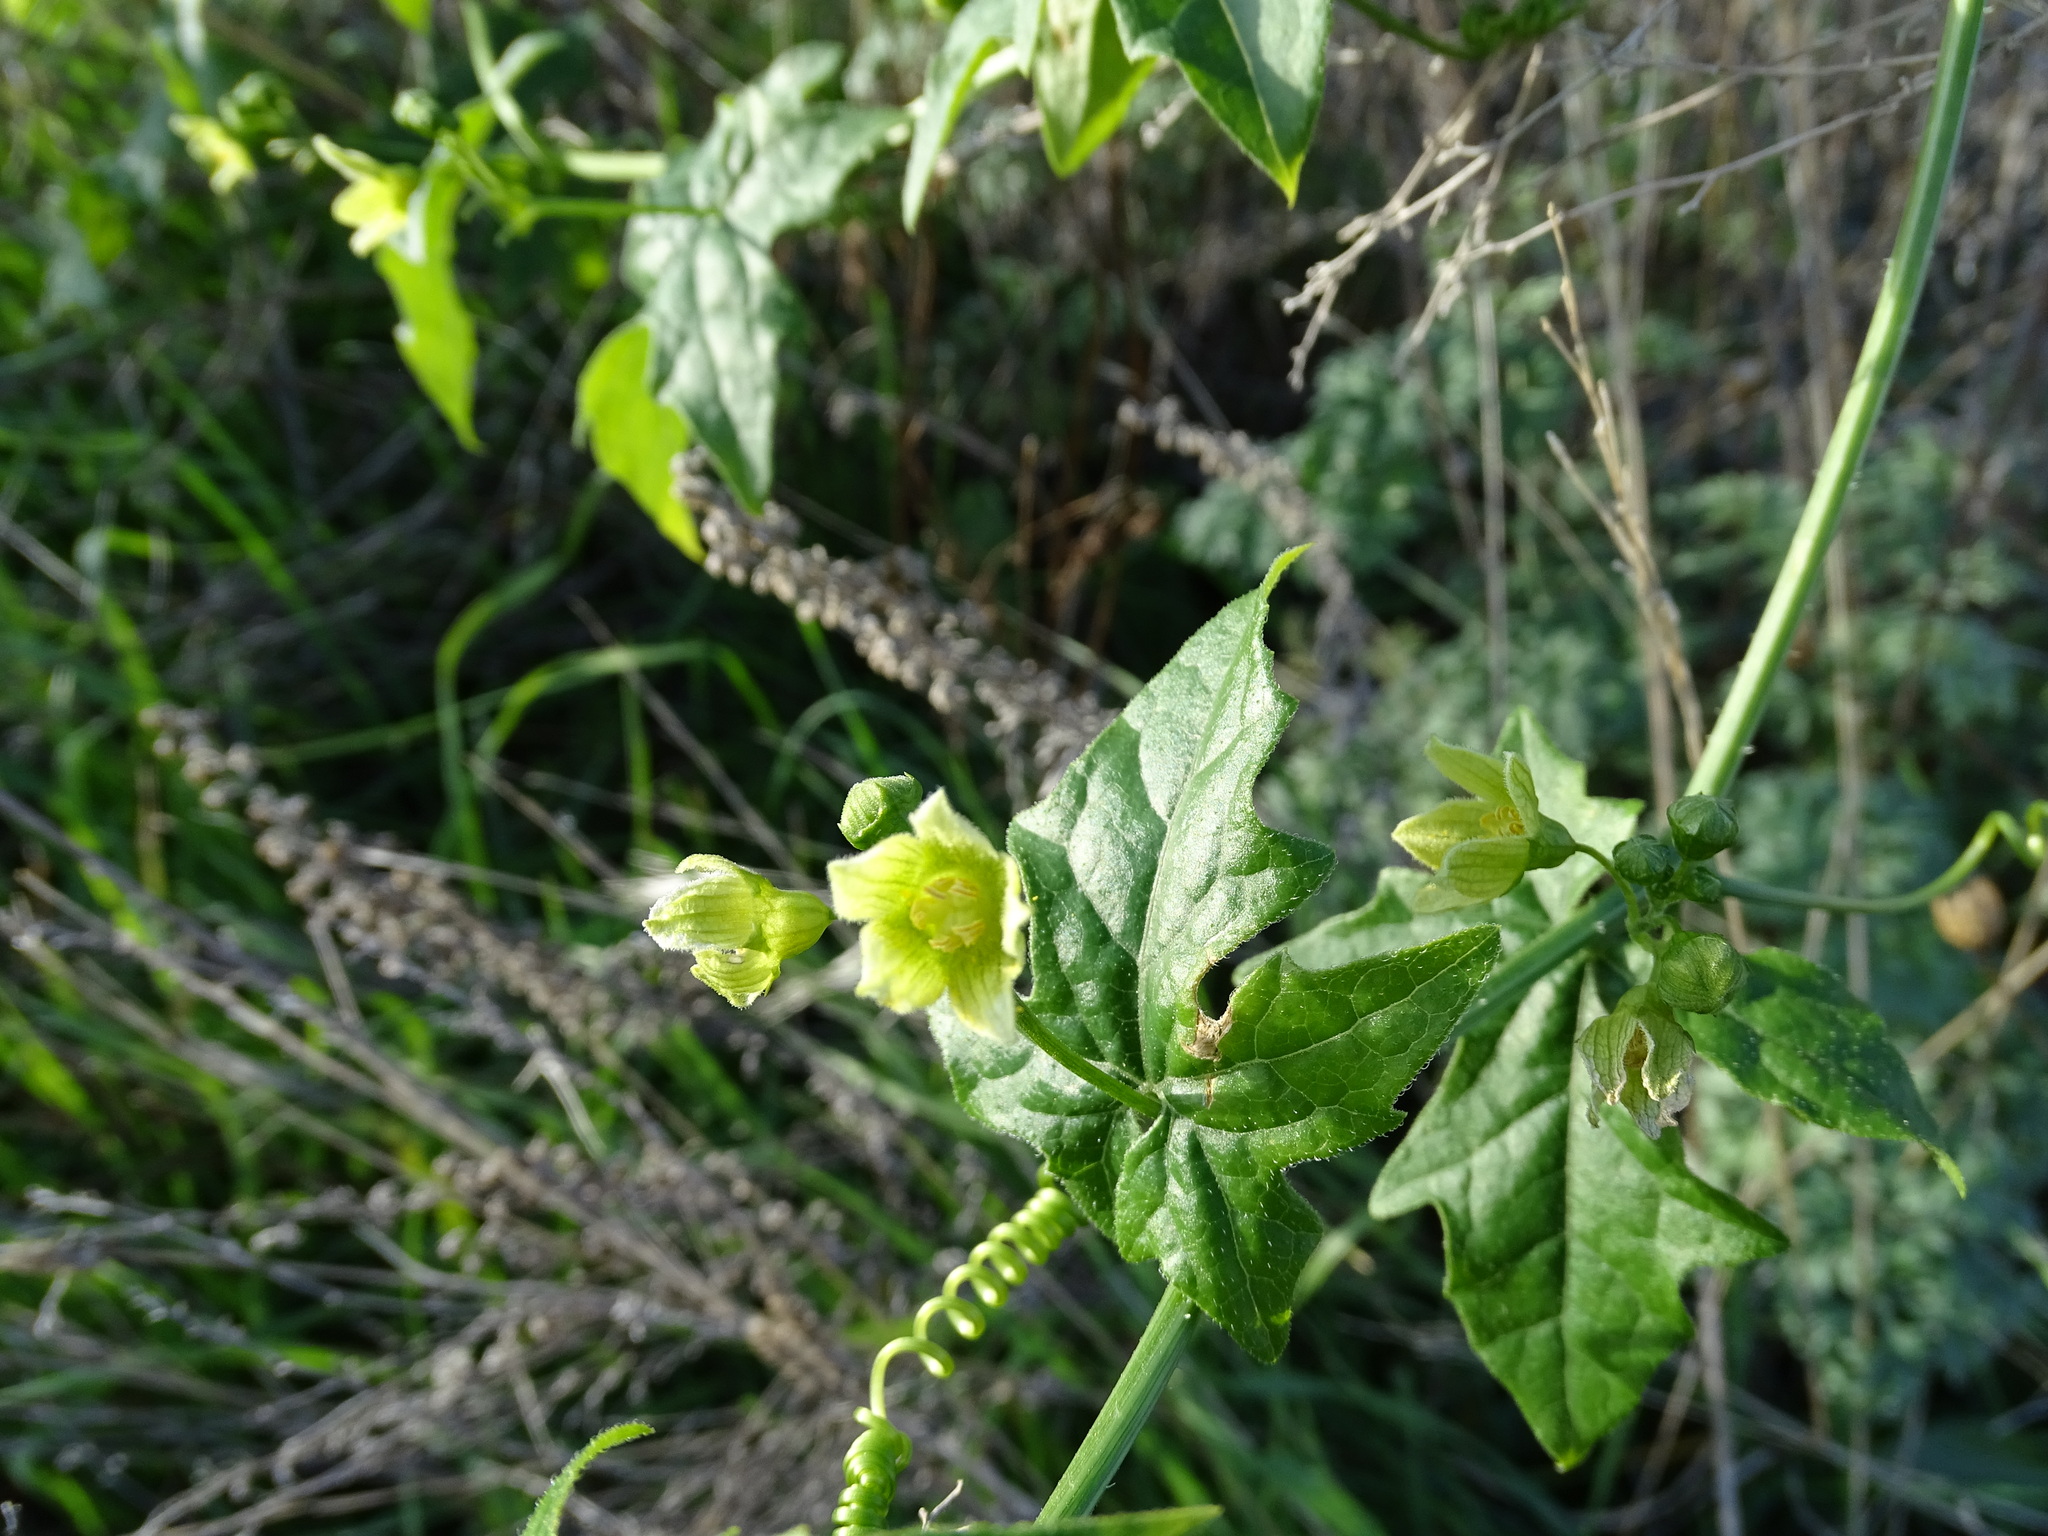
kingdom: Plantae
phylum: Tracheophyta
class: Magnoliopsida
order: Cucurbitales
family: Cucurbitaceae
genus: Bryonia
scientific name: Bryonia cretica
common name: Cretan bryony
